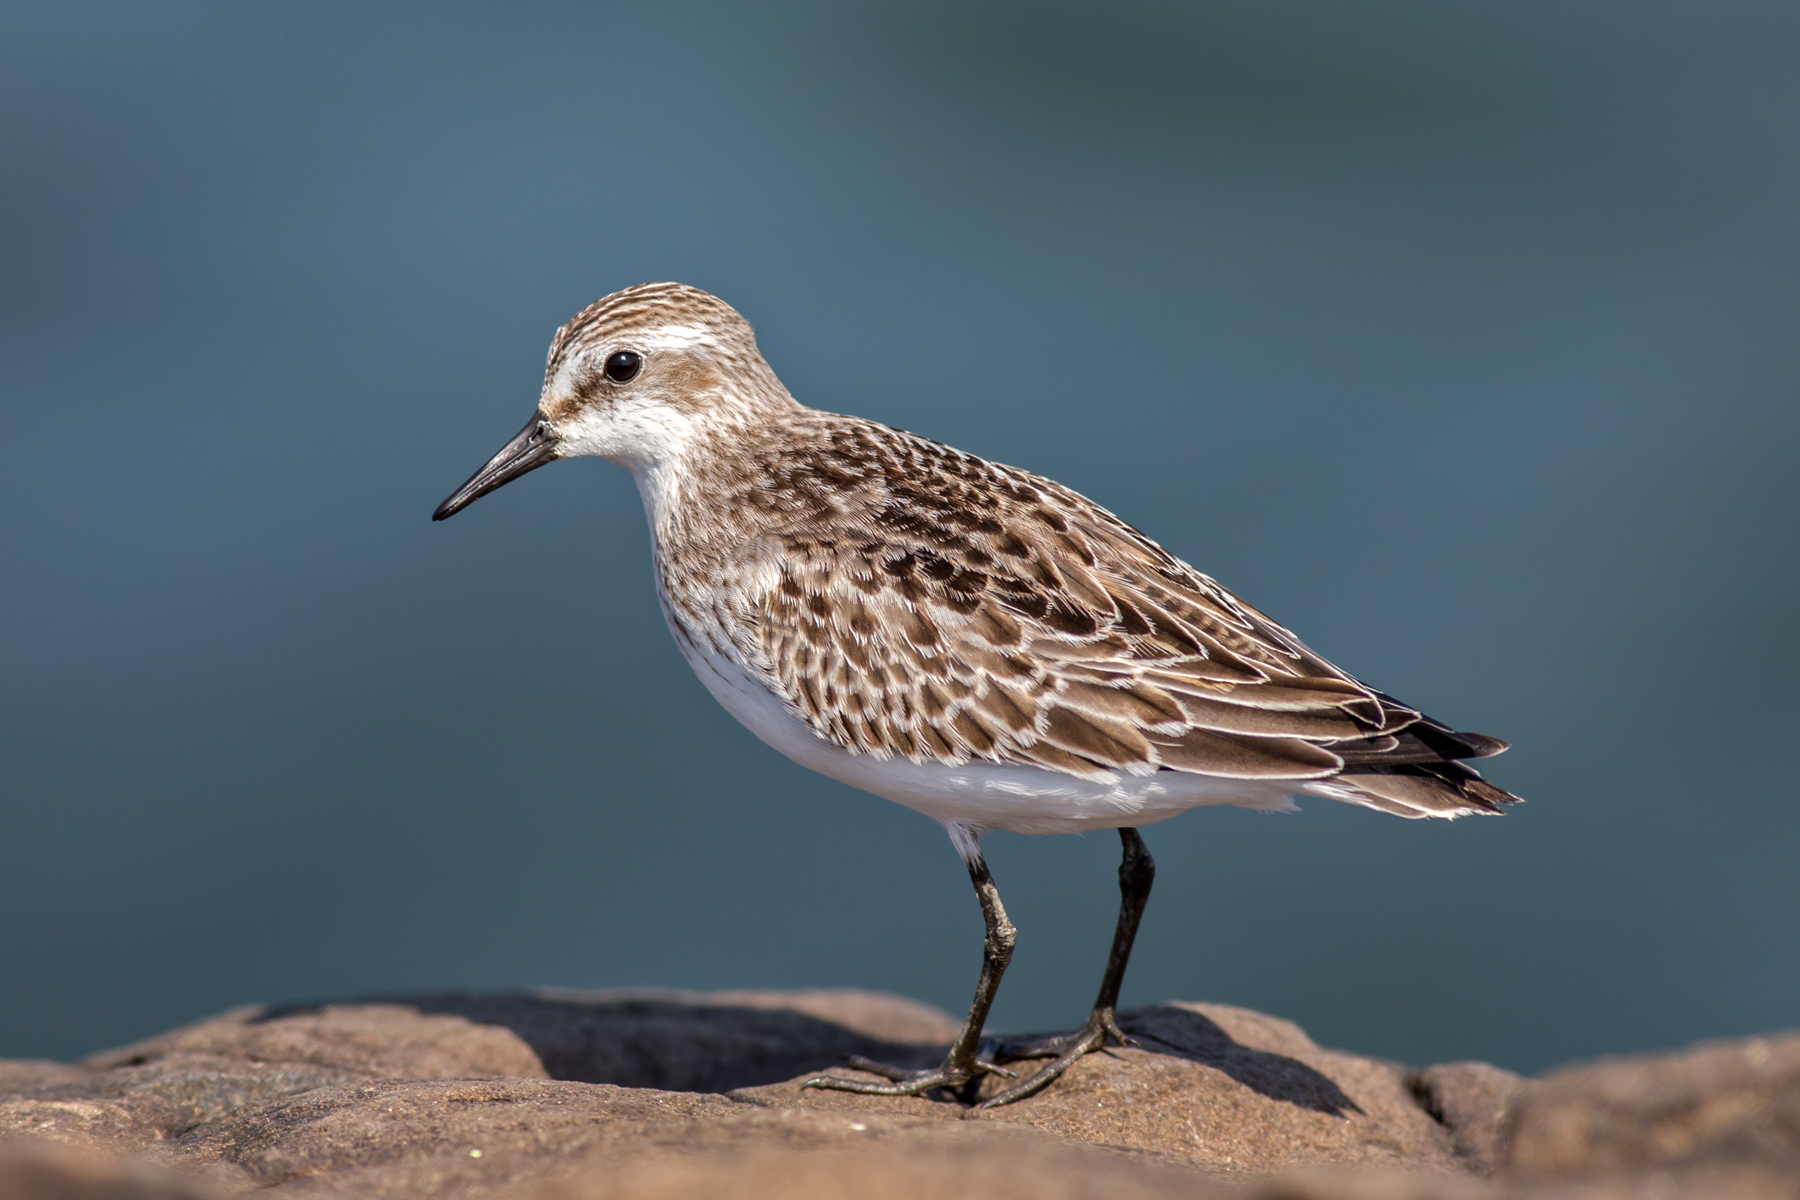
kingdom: Animalia
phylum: Chordata
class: Aves
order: Charadriiformes
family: Scolopacidae
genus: Calidris
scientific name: Calidris pusilla
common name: Semipalmated sandpiper
